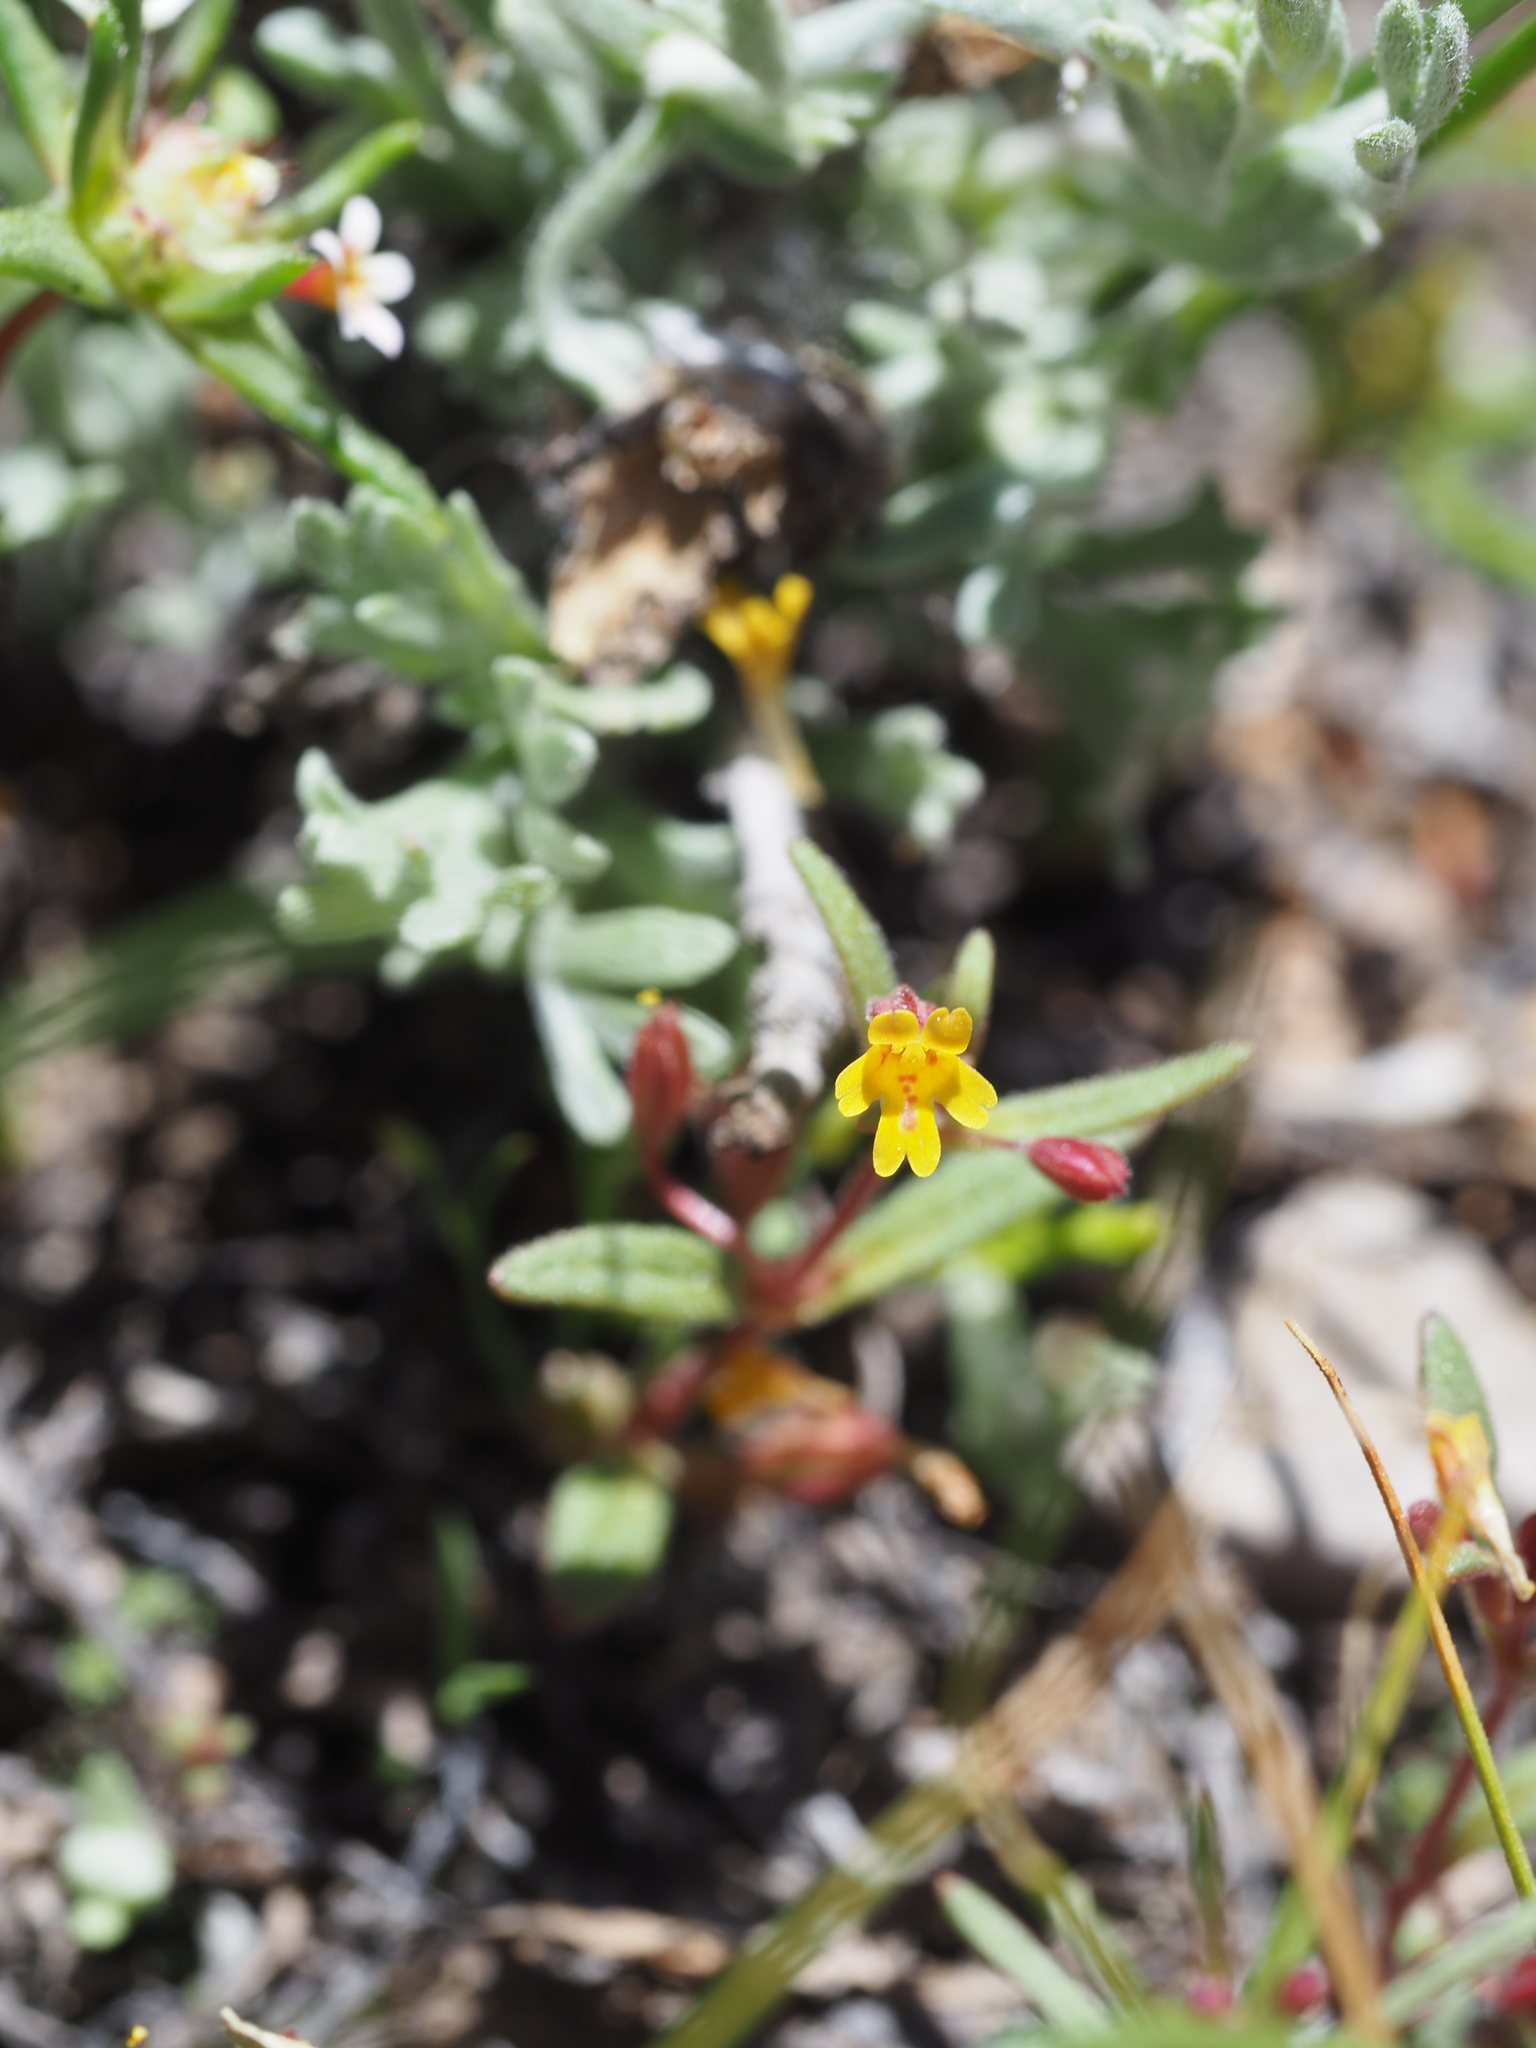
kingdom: Plantae
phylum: Tracheophyta
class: Magnoliopsida
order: Lamiales
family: Phrymaceae
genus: Erythranthe
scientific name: Erythranthe suksdorfii
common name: Suksdorf's monkeyflower
